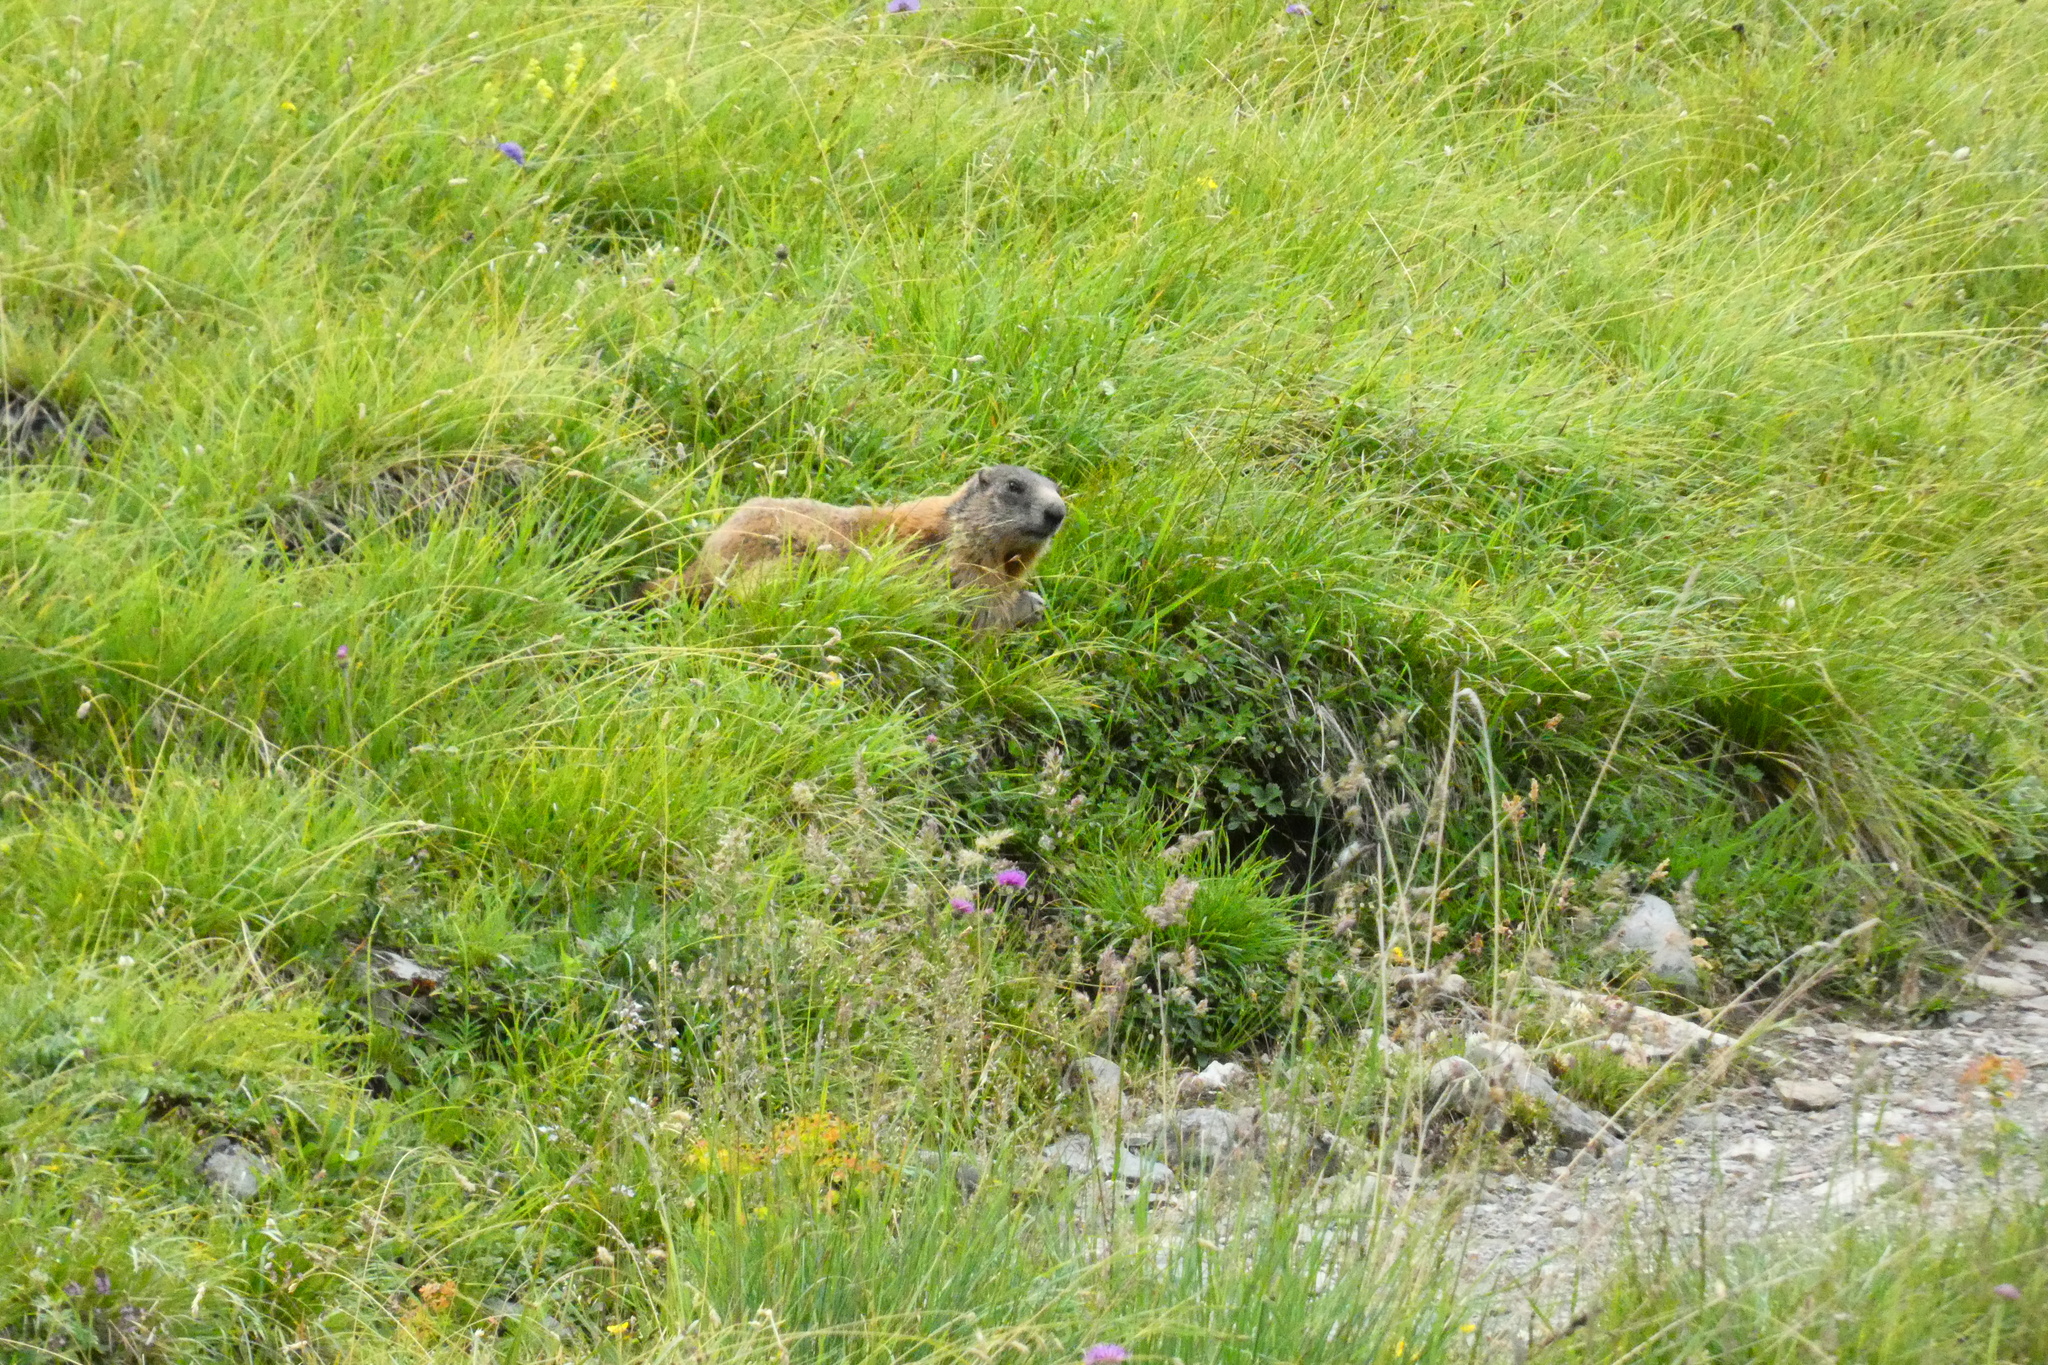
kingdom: Animalia
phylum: Chordata
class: Mammalia
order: Rodentia
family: Sciuridae
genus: Marmota
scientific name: Marmota marmota
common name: Alpine marmot
